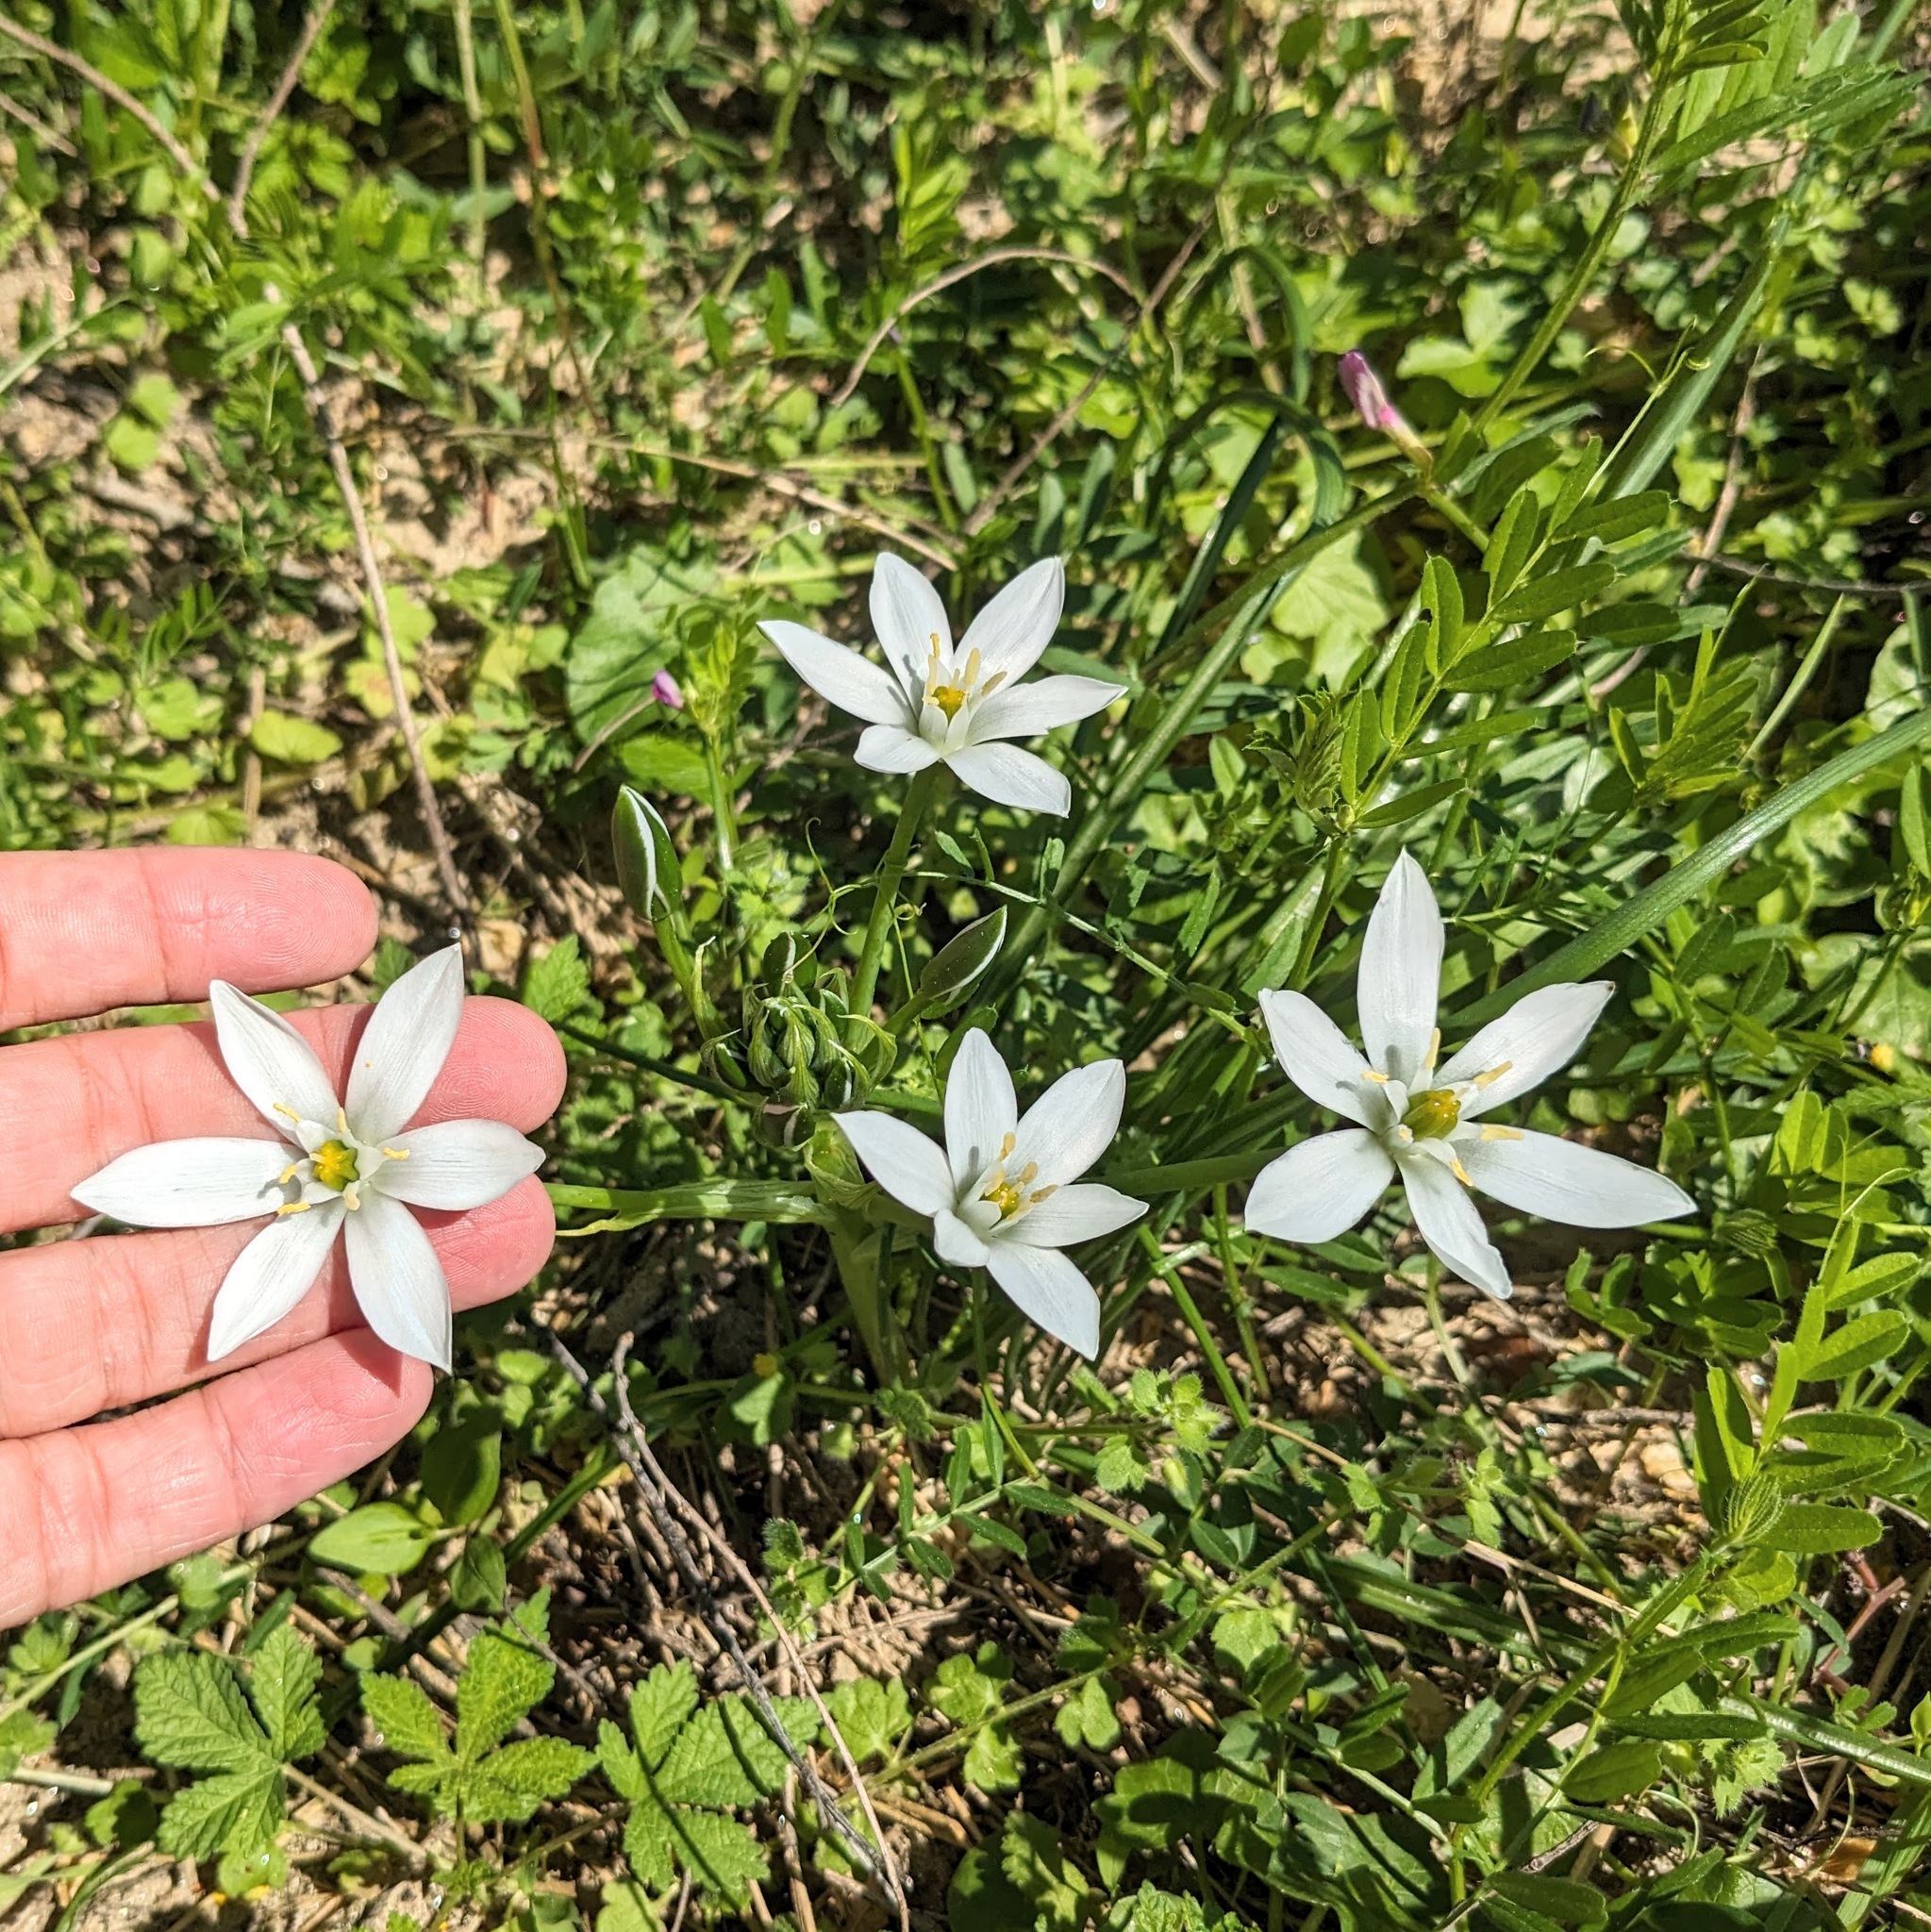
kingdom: Plantae
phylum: Tracheophyta
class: Liliopsida
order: Asparagales
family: Asparagaceae
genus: Ornithogalum
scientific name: Ornithogalum umbellatum
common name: Garden star-of-bethlehem
